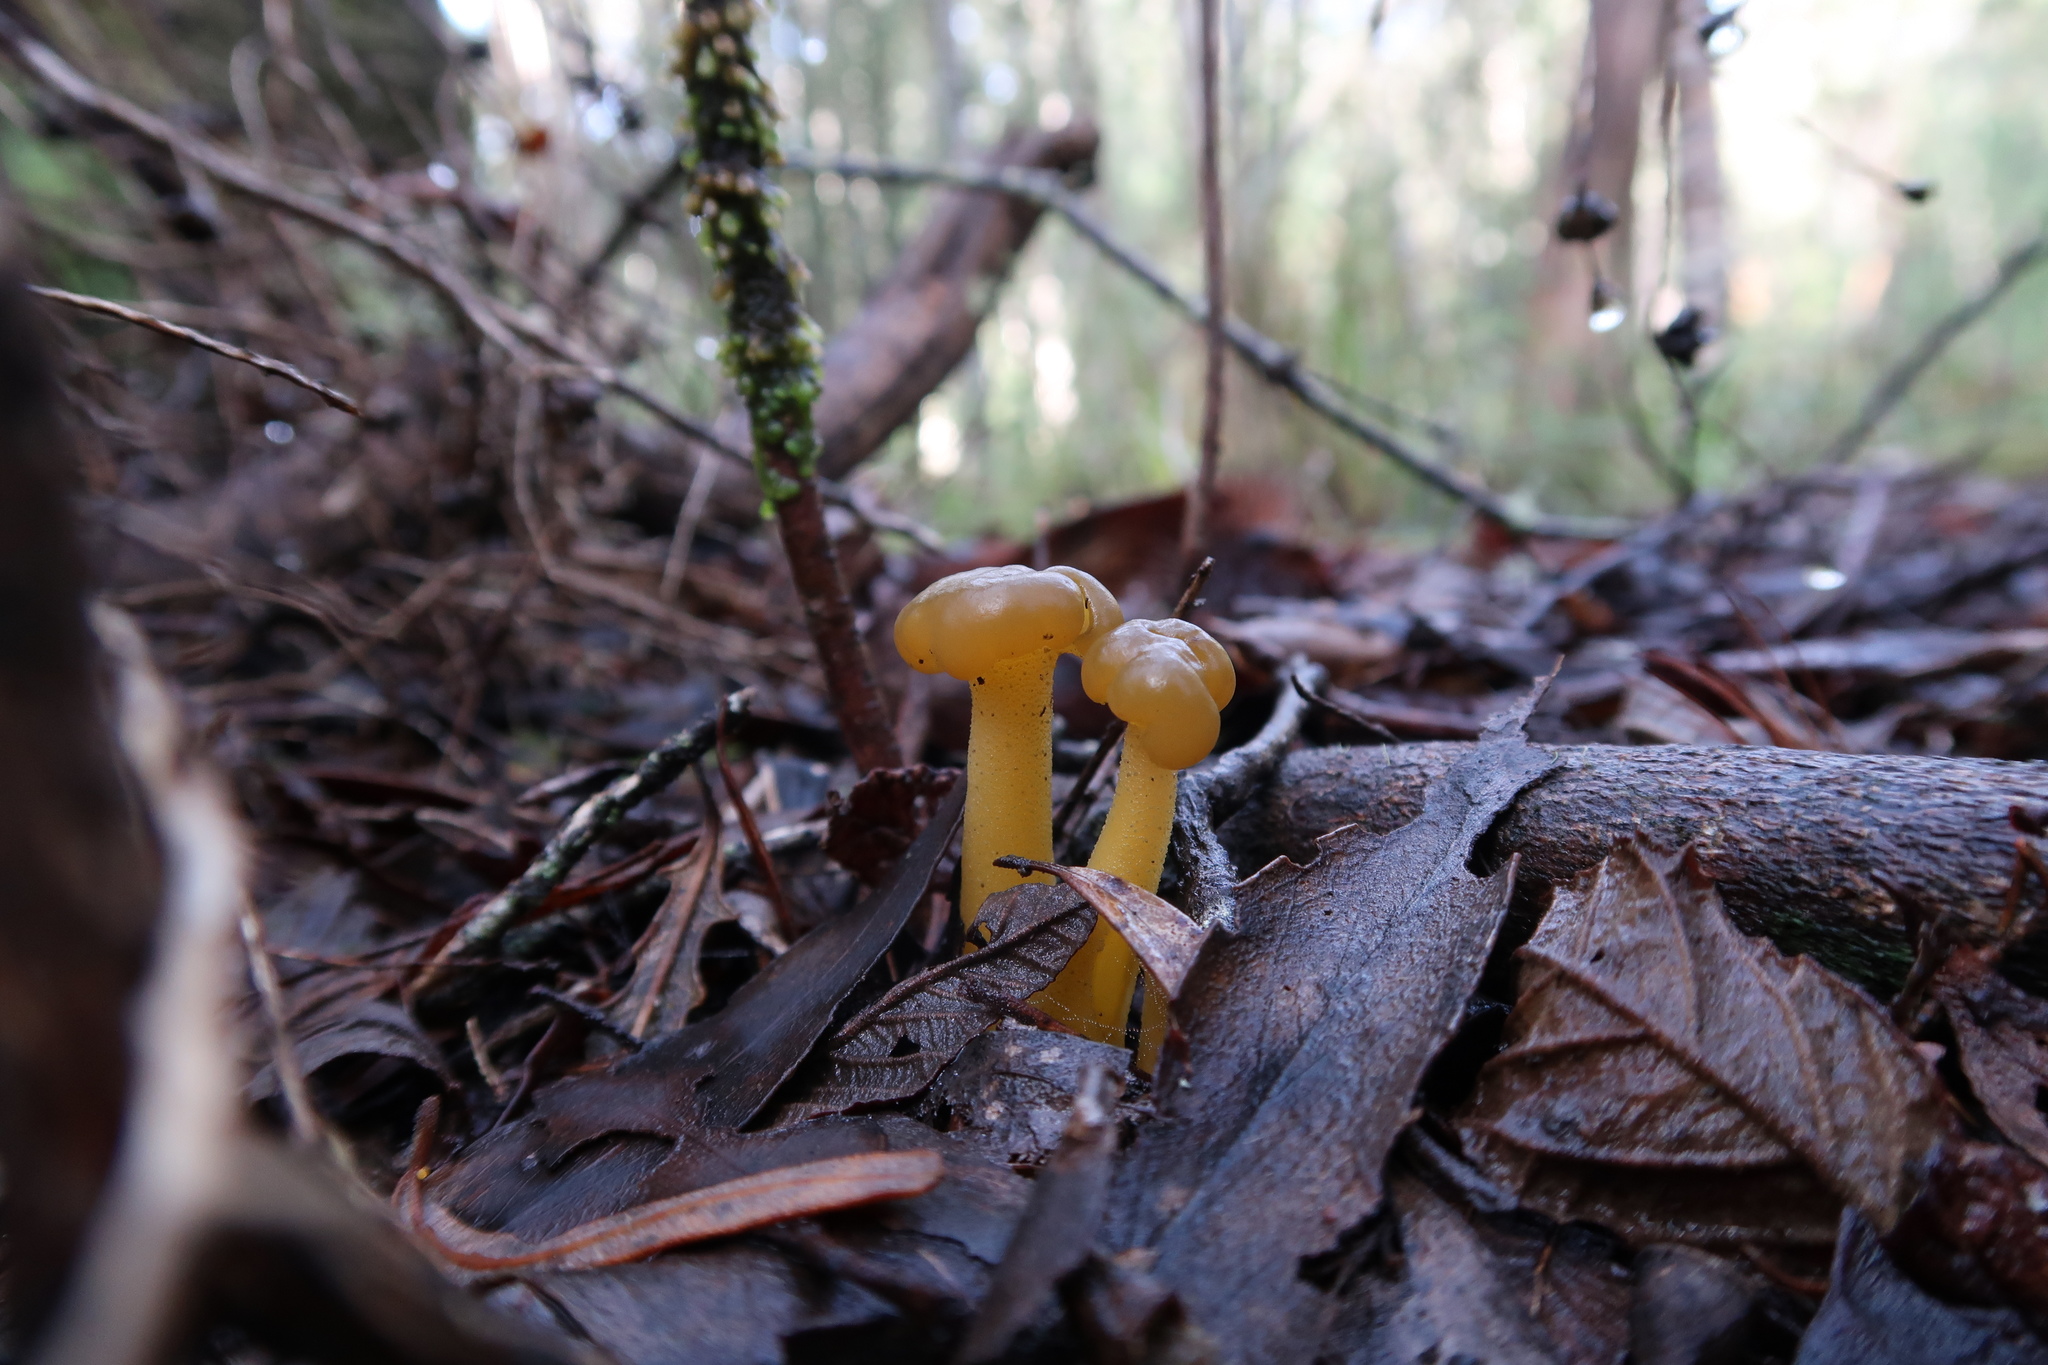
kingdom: Fungi
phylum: Ascomycota
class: Leotiomycetes
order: Leotiales
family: Leotiaceae
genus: Leotia
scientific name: Leotia lubrica
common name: Jellybaby
